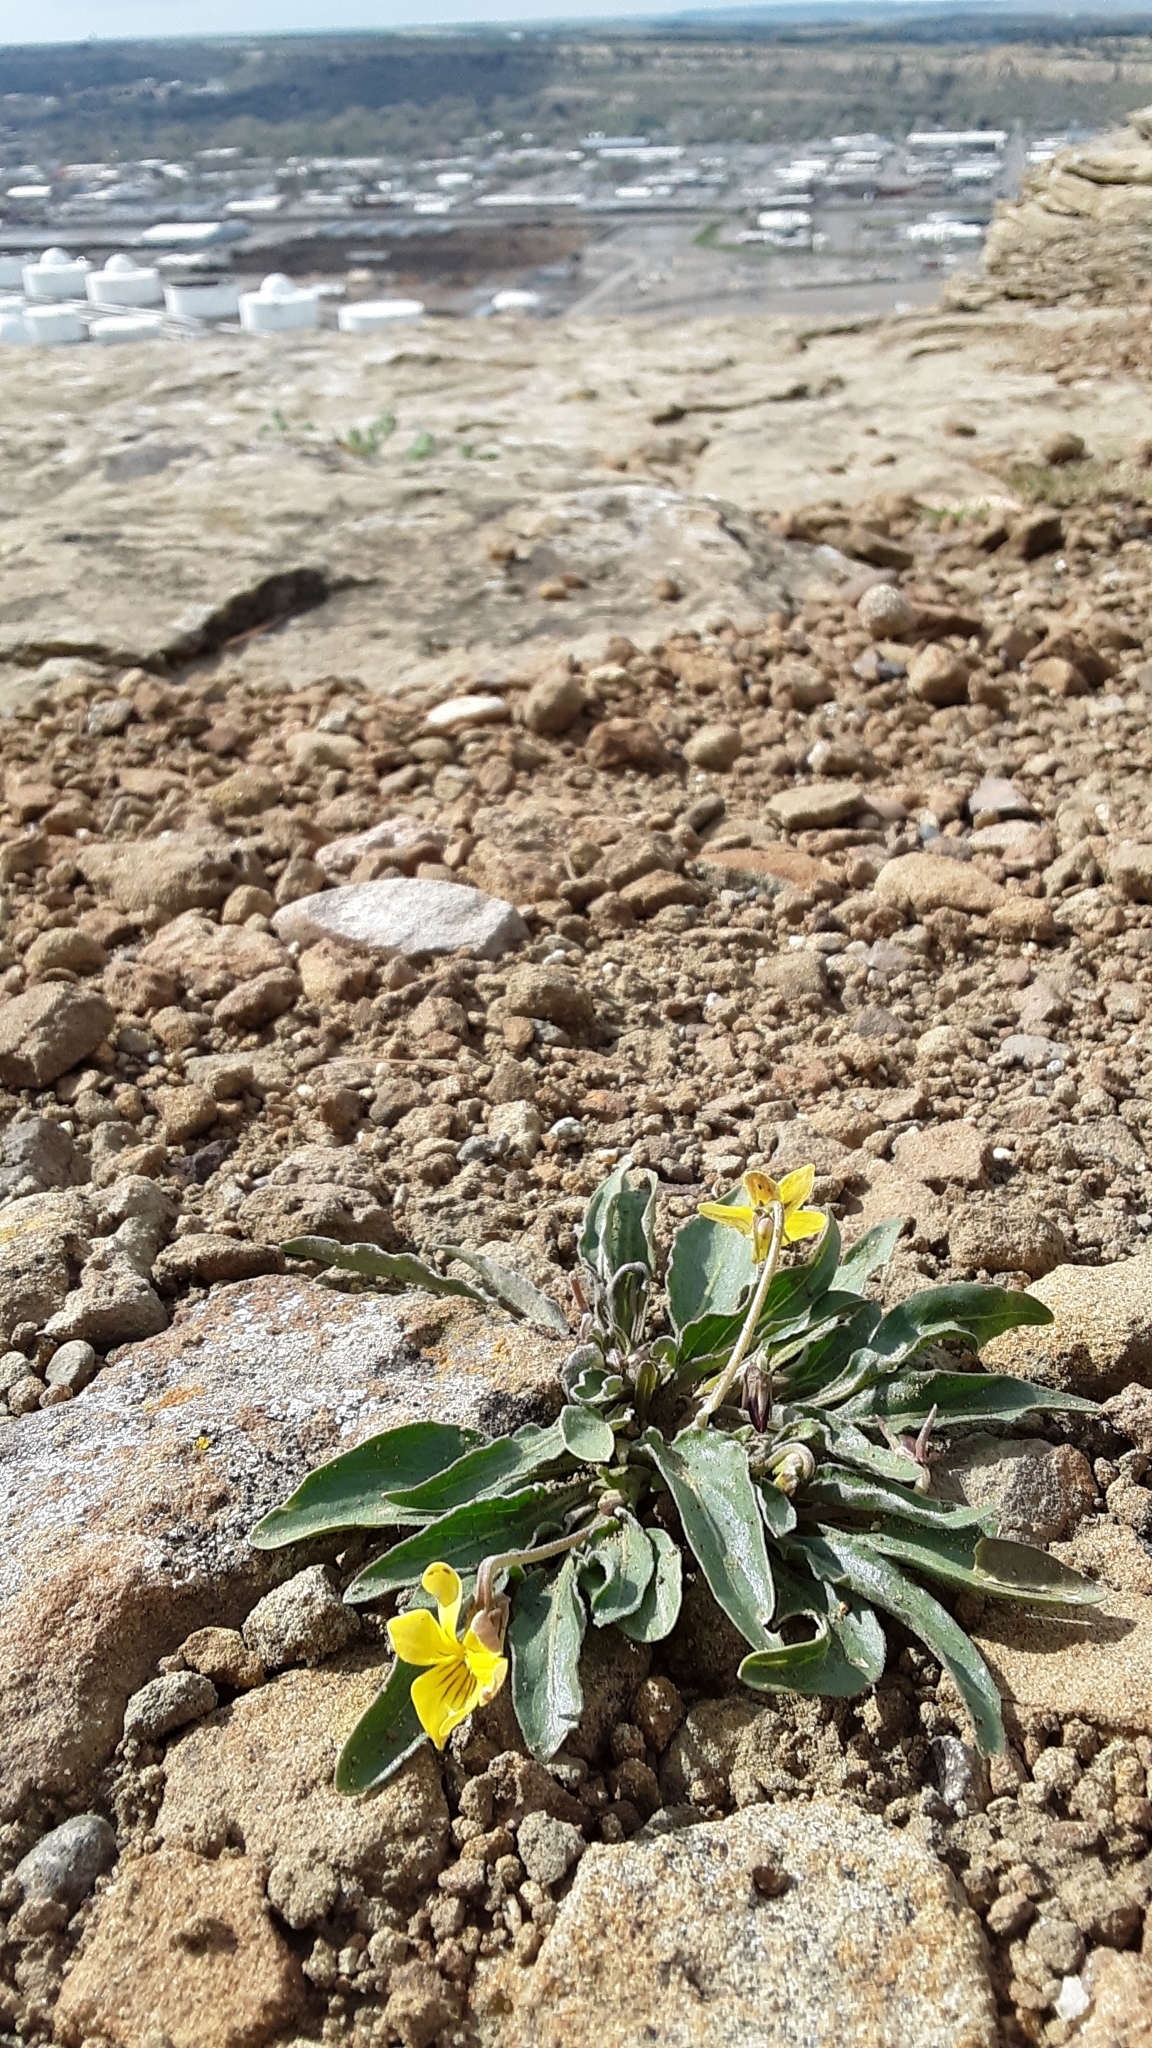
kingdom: Plantae
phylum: Tracheophyta
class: Magnoliopsida
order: Malpighiales
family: Violaceae
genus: Viola
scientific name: Viola nuttallii
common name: Yellow prairie violet
